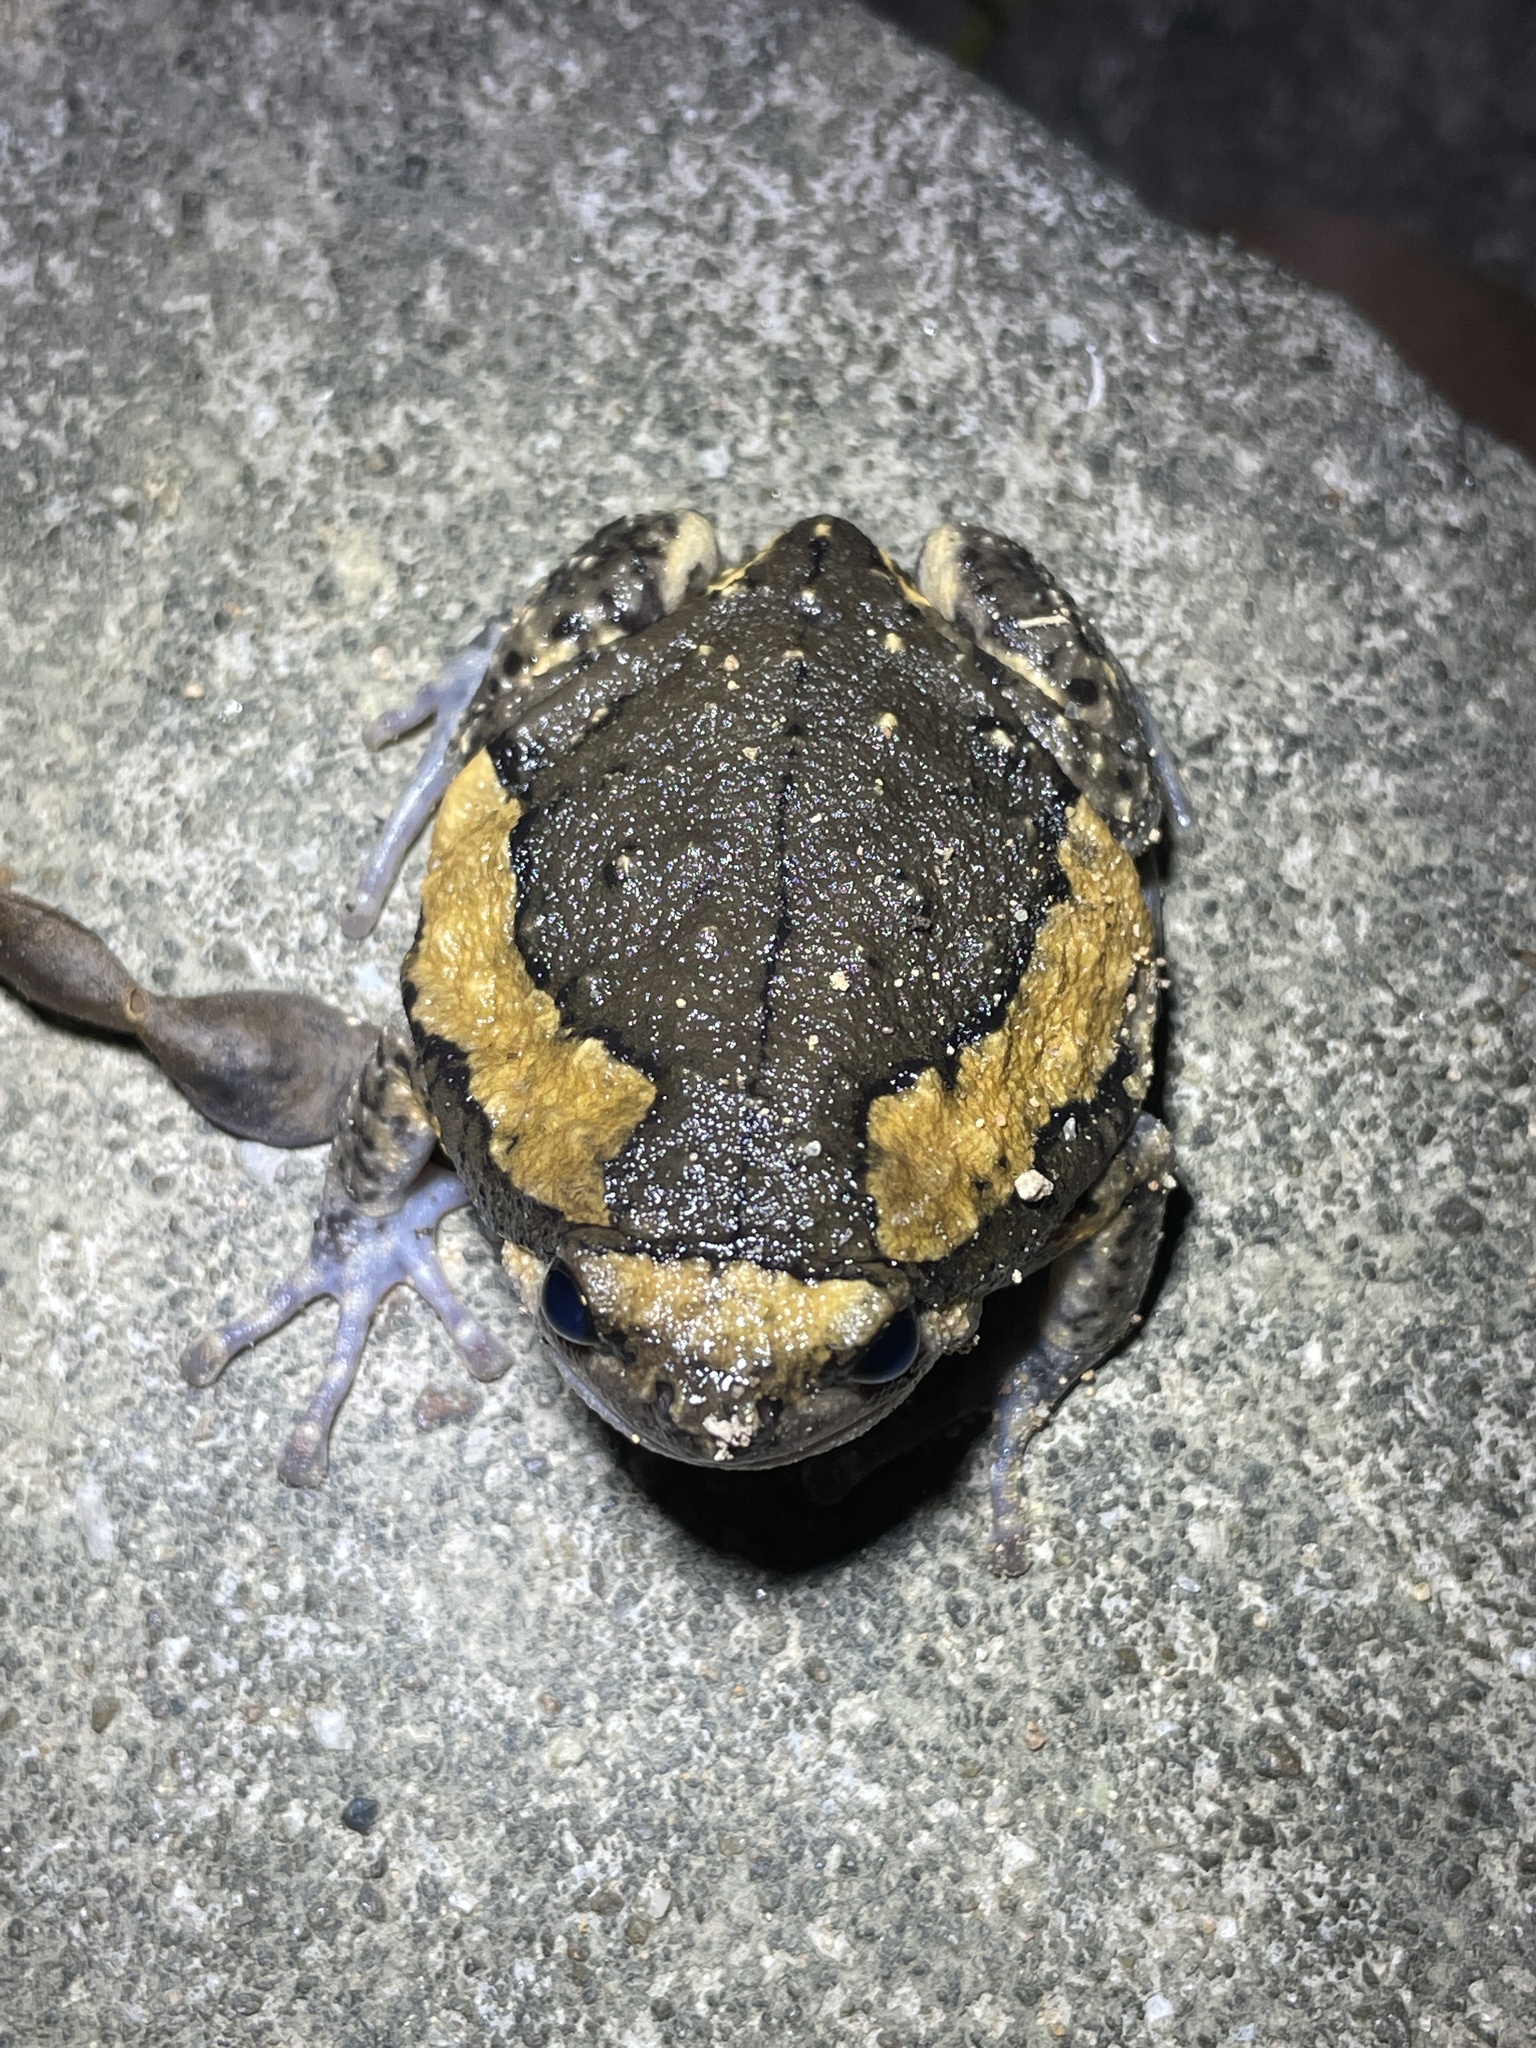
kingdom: Animalia
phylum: Chordata
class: Amphibia
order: Anura
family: Microhylidae
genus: Kaloula
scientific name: Kaloula pulchra
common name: Common,banded bullfrog
